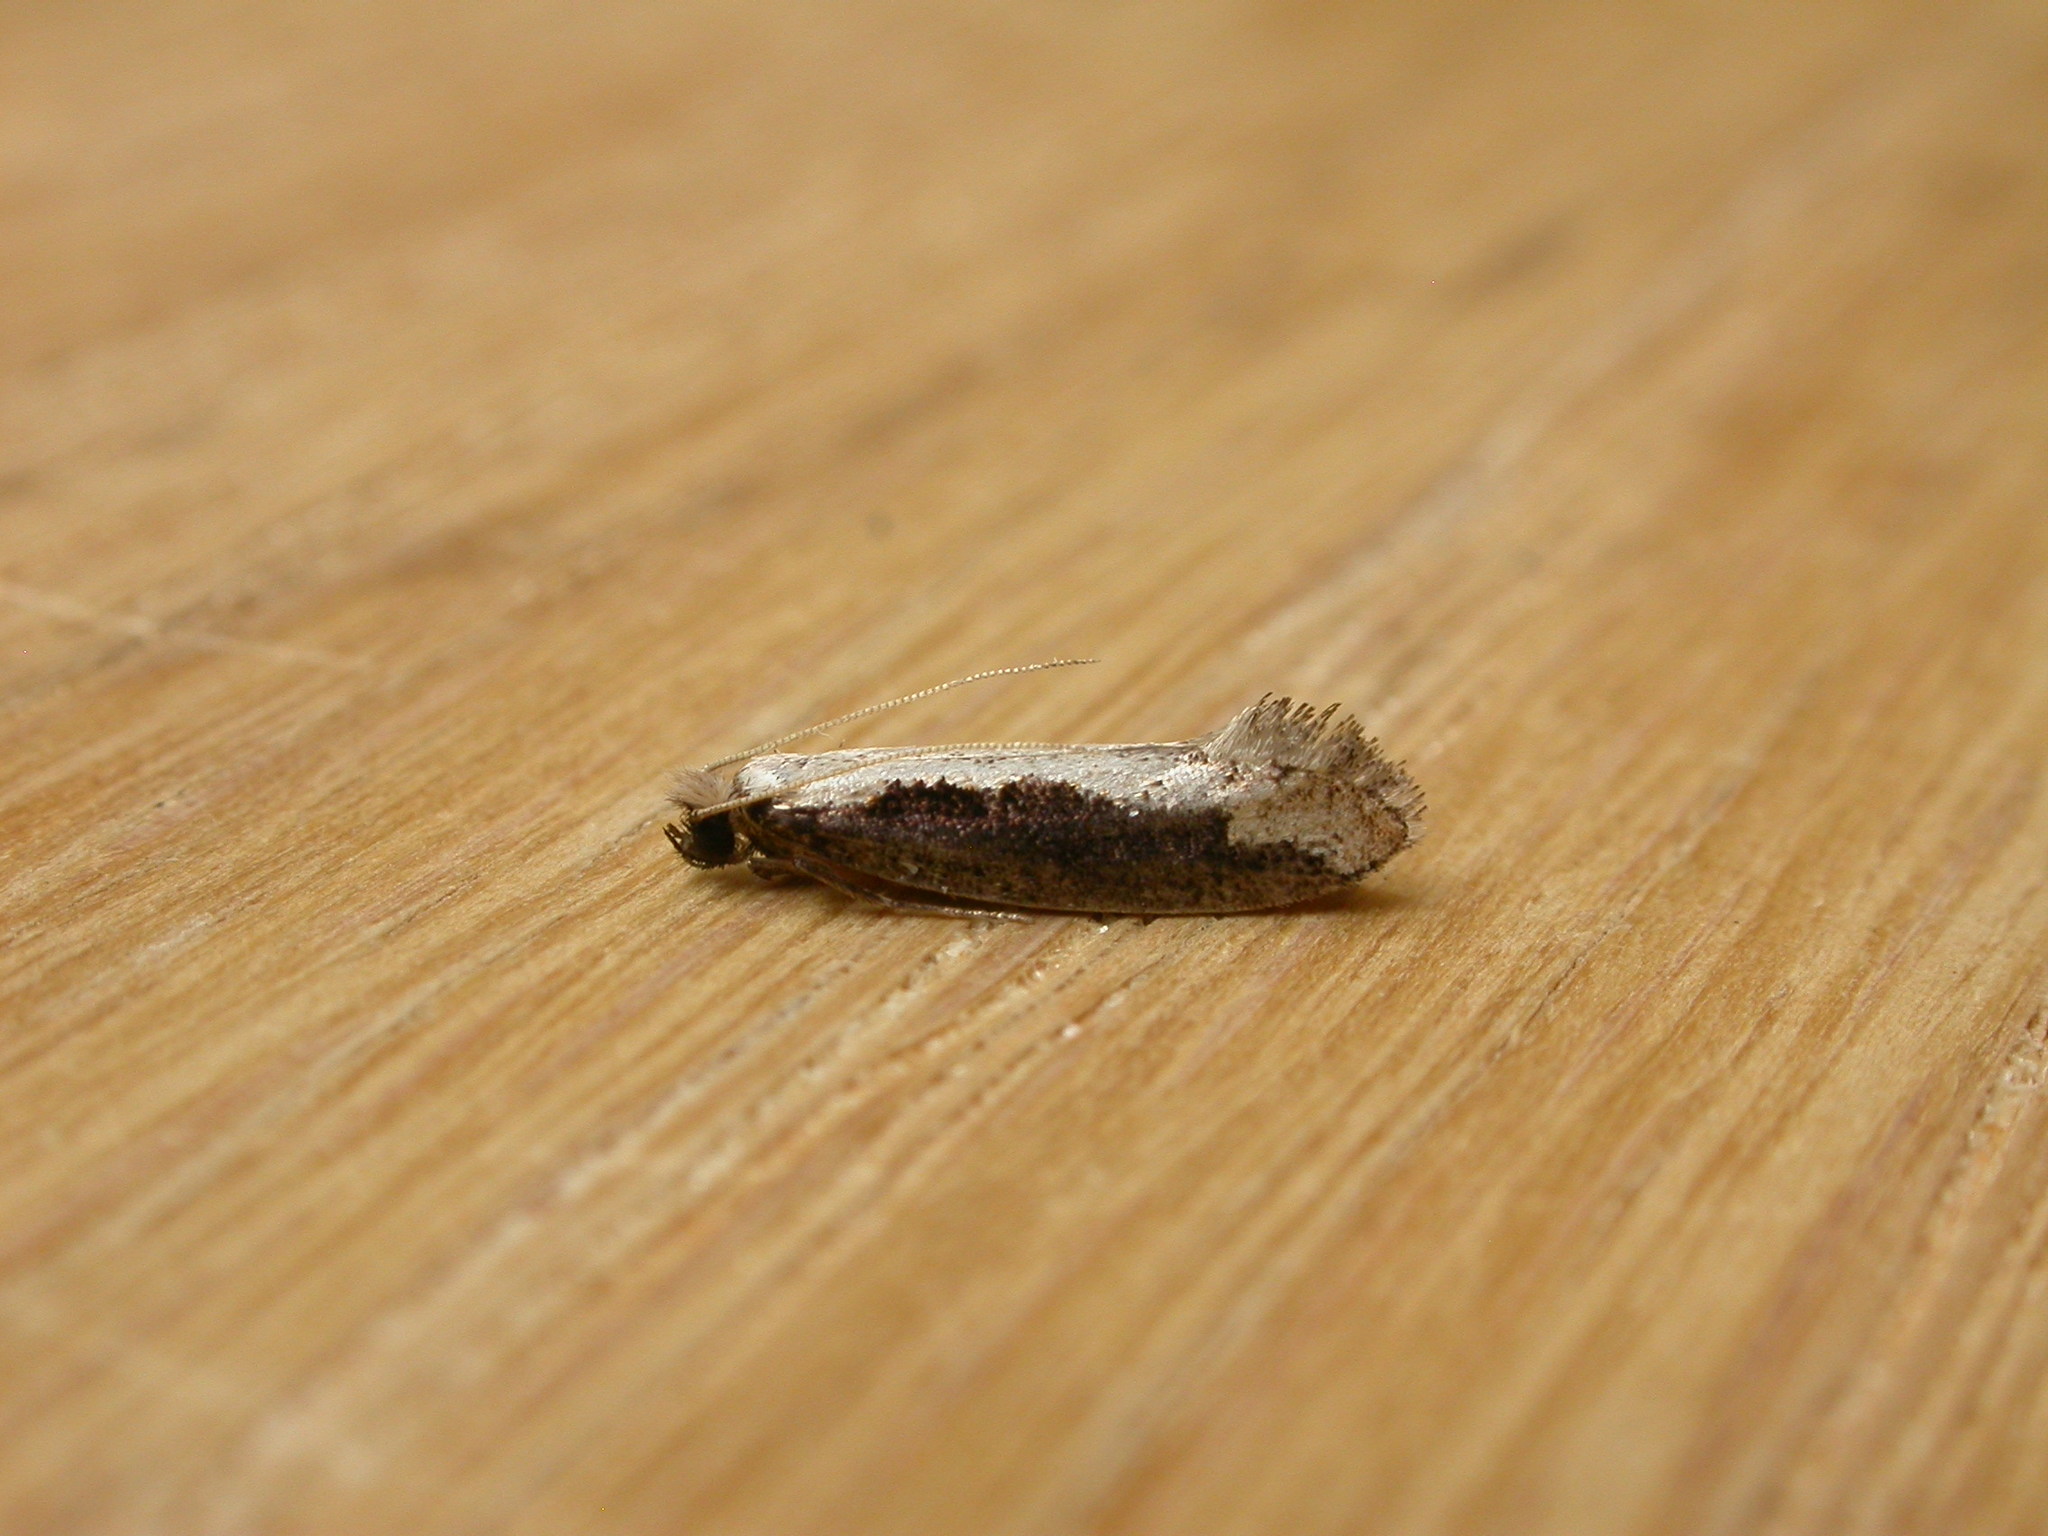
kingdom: Animalia
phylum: Arthropoda
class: Insecta
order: Lepidoptera
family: Tineidae
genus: Erechthias
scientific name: Erechthias diaphora
